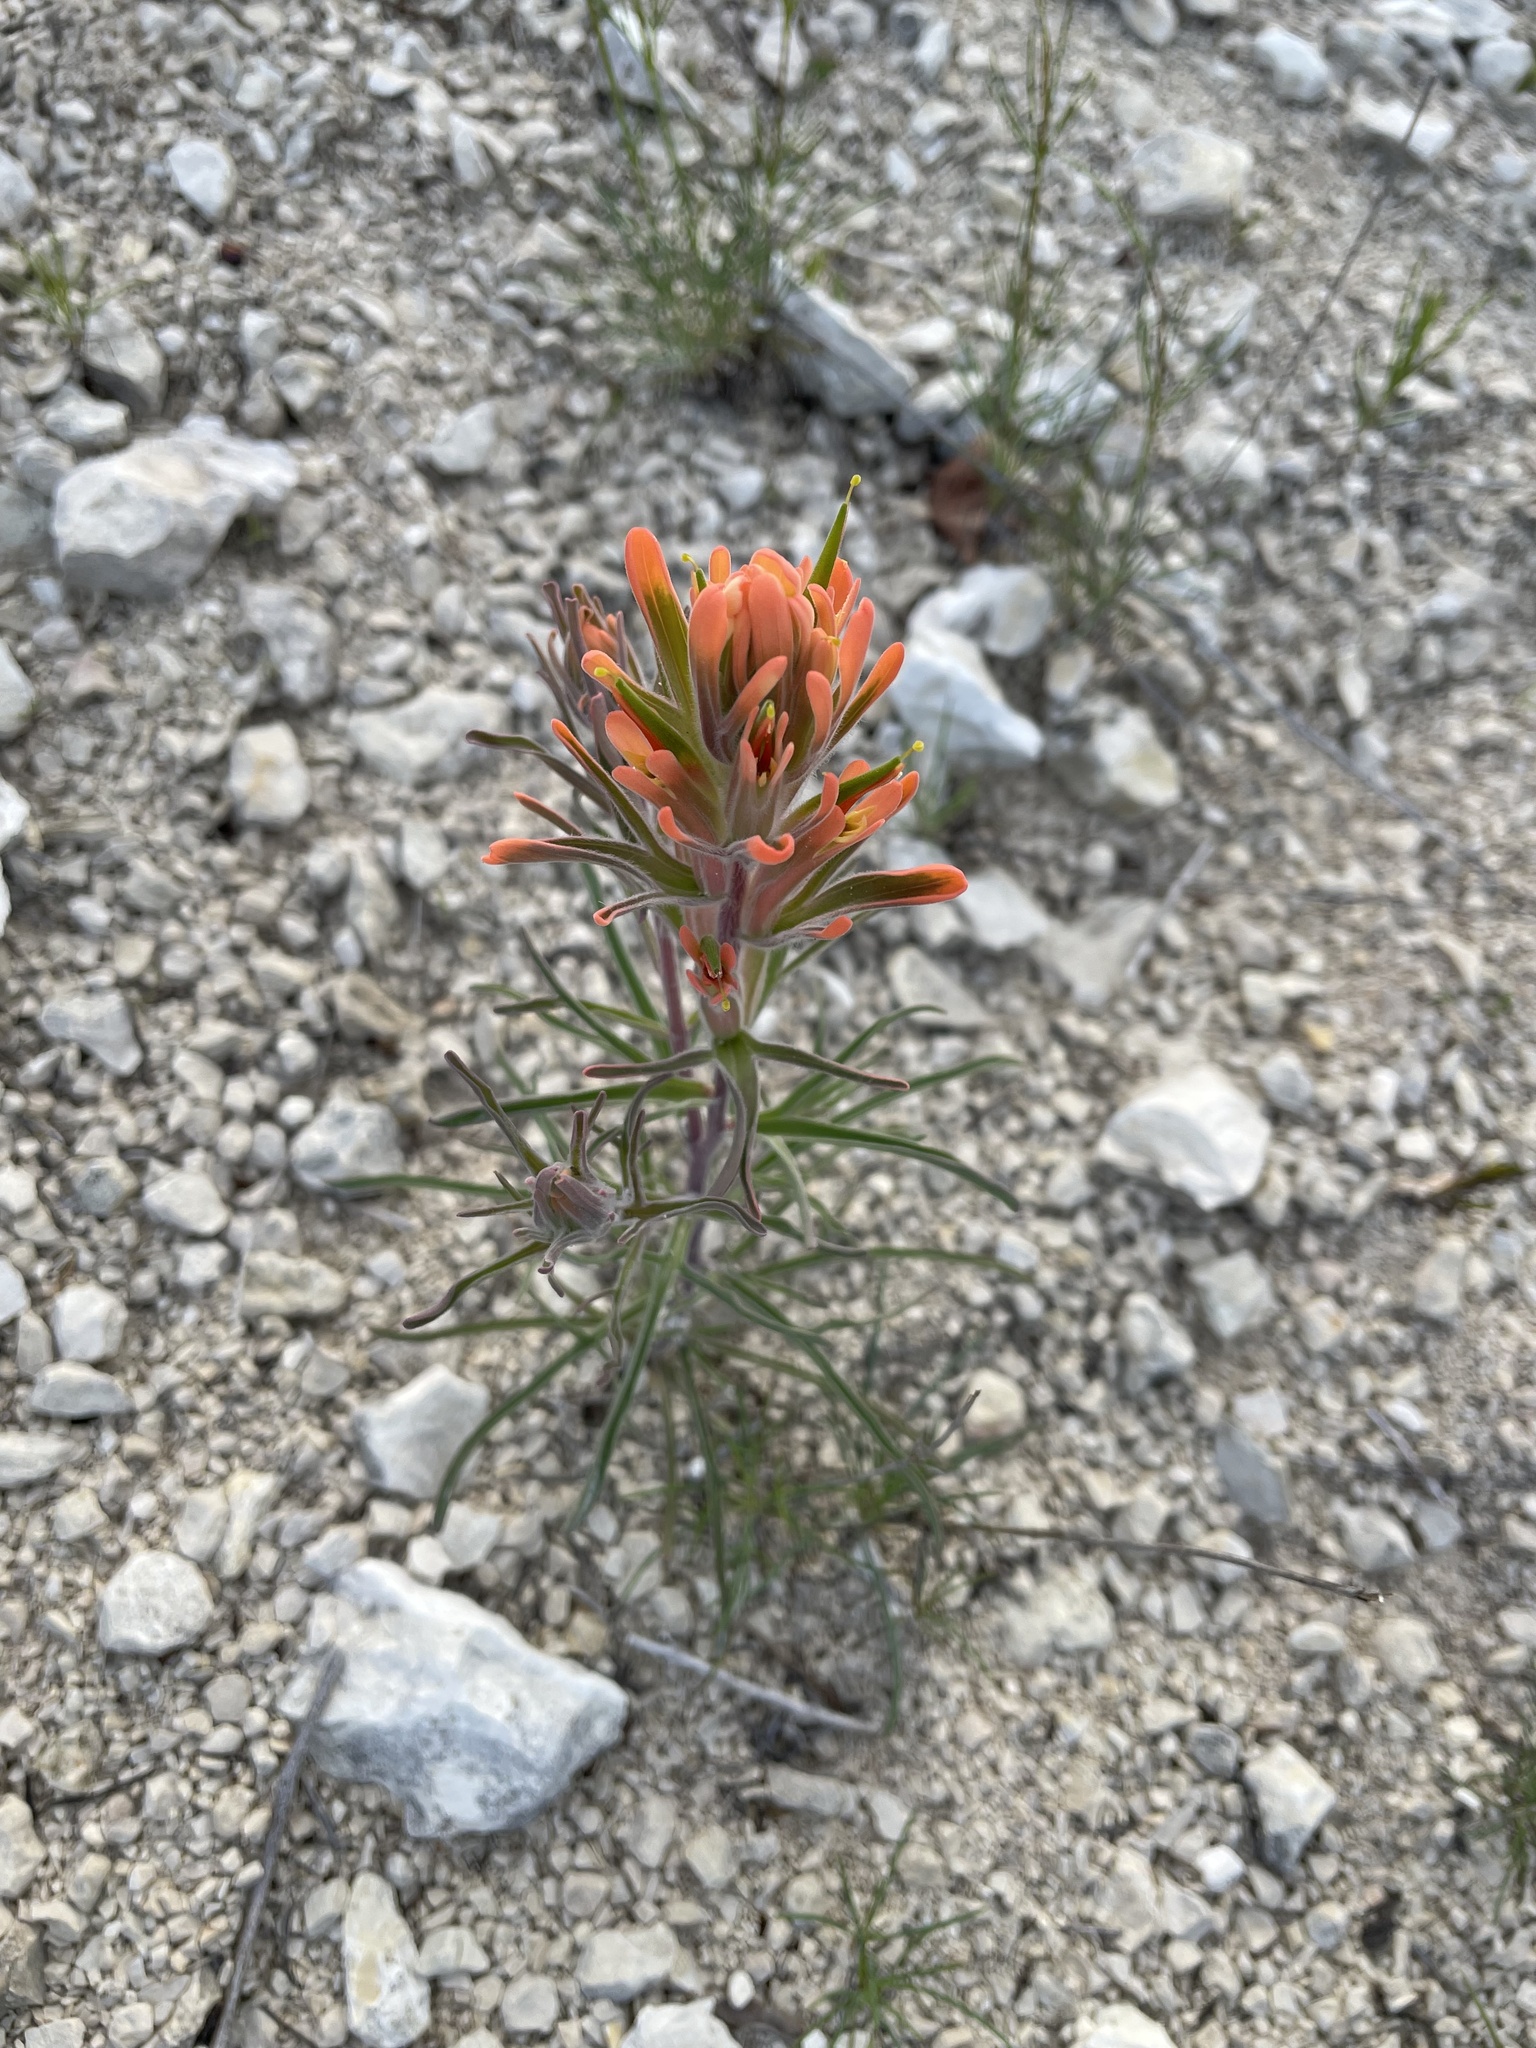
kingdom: Plantae
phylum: Tracheophyta
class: Magnoliopsida
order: Lamiales
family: Orobanchaceae
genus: Castilleja
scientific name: Castilleja lindheimeri
